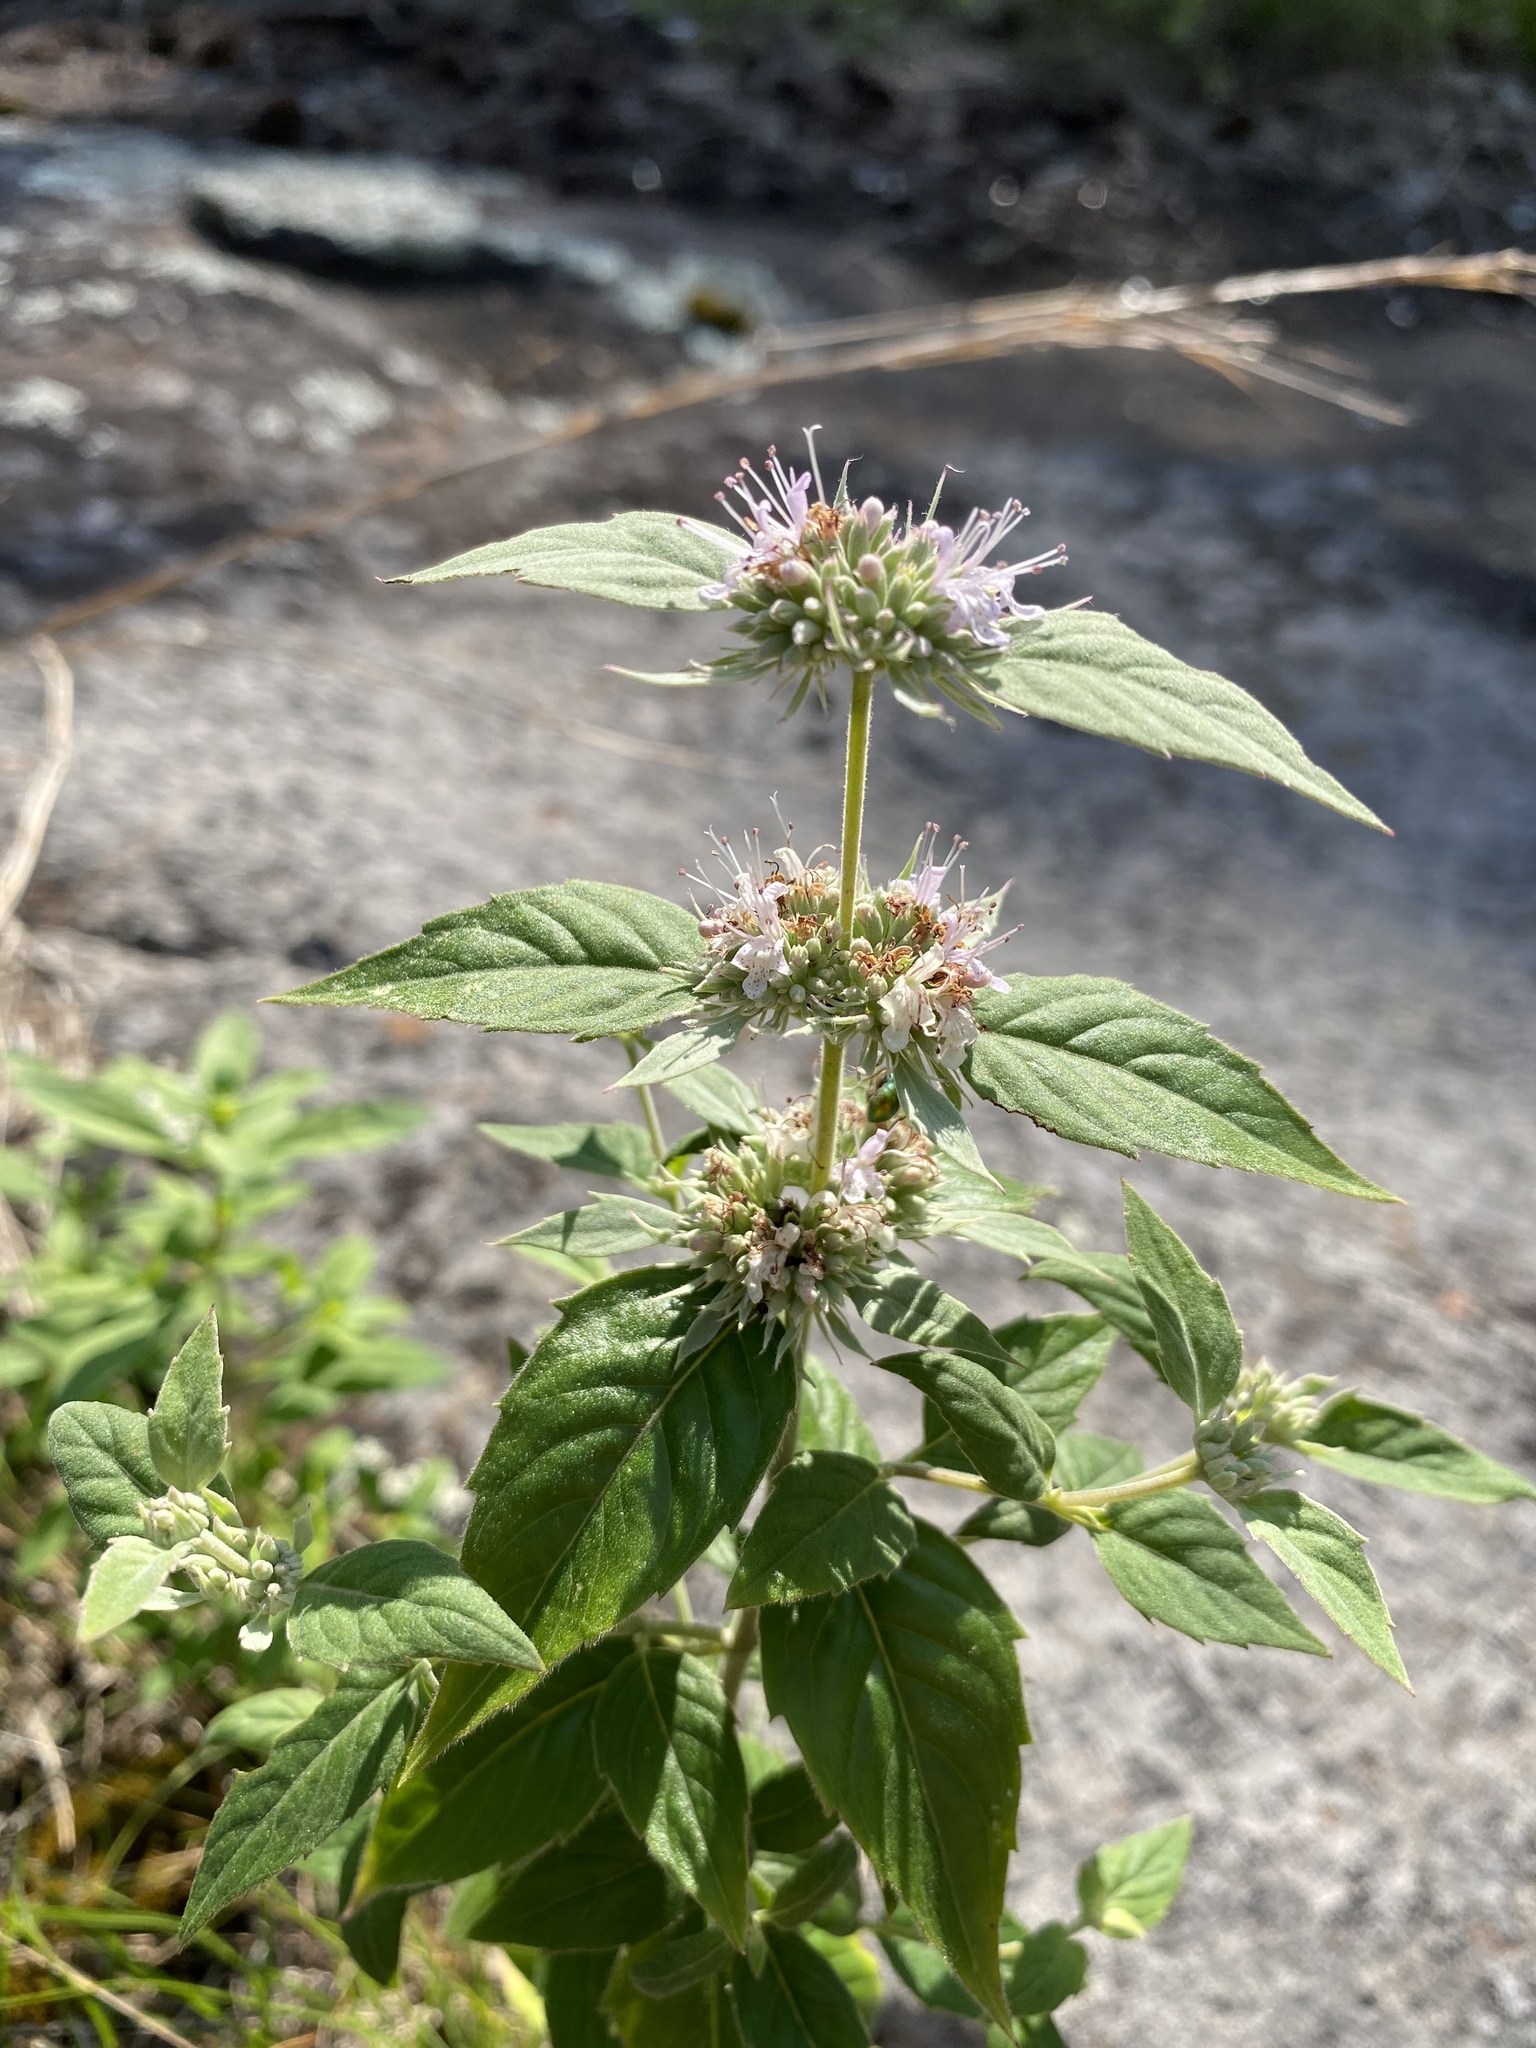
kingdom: Plantae
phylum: Tracheophyta
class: Magnoliopsida
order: Lamiales
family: Lamiaceae
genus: Pycnanthemum
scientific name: Pycnanthemum incanum
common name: Hoary mountain-mint
